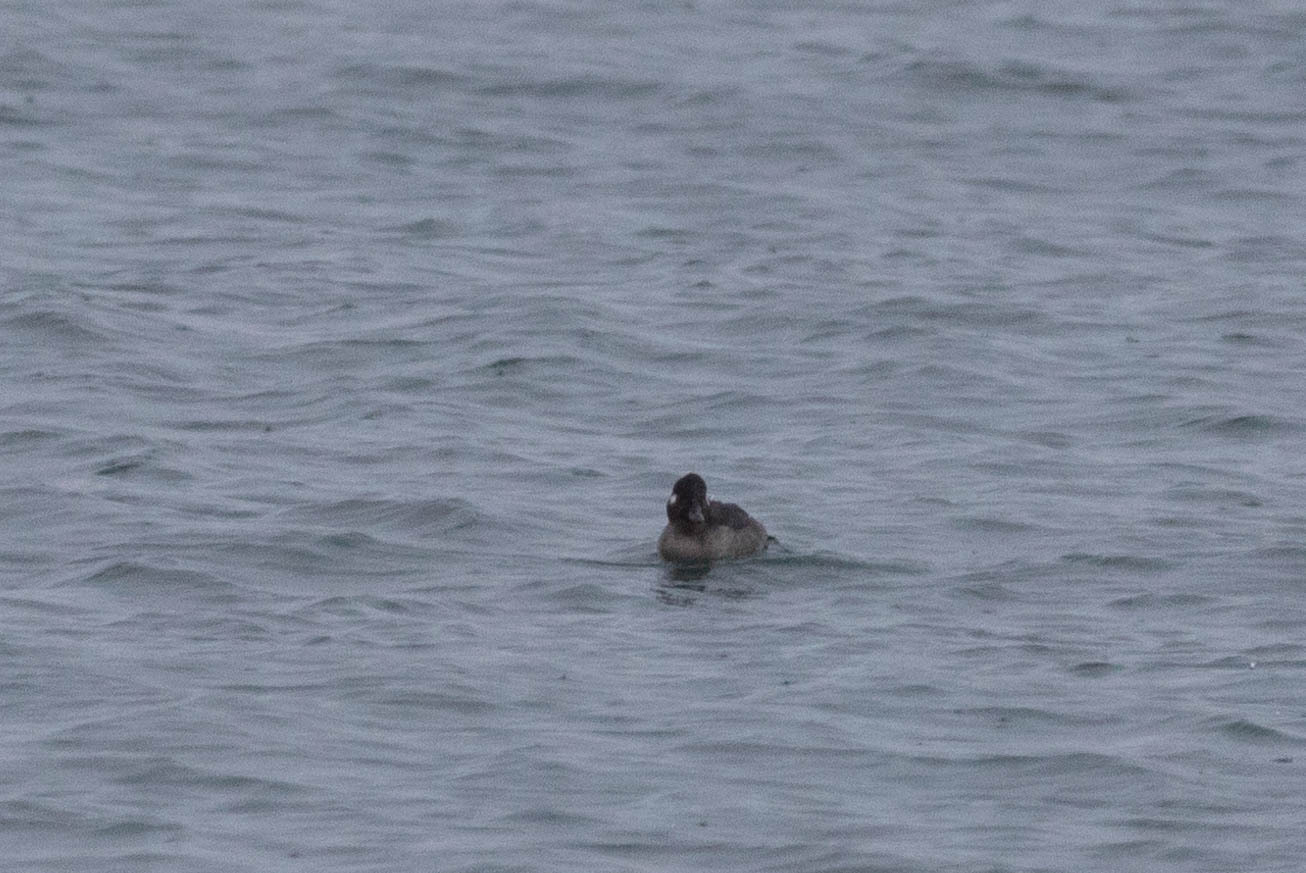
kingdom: Animalia
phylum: Chordata
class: Aves
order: Anseriformes
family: Anatidae
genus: Bucephala
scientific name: Bucephala albeola
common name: Bufflehead
